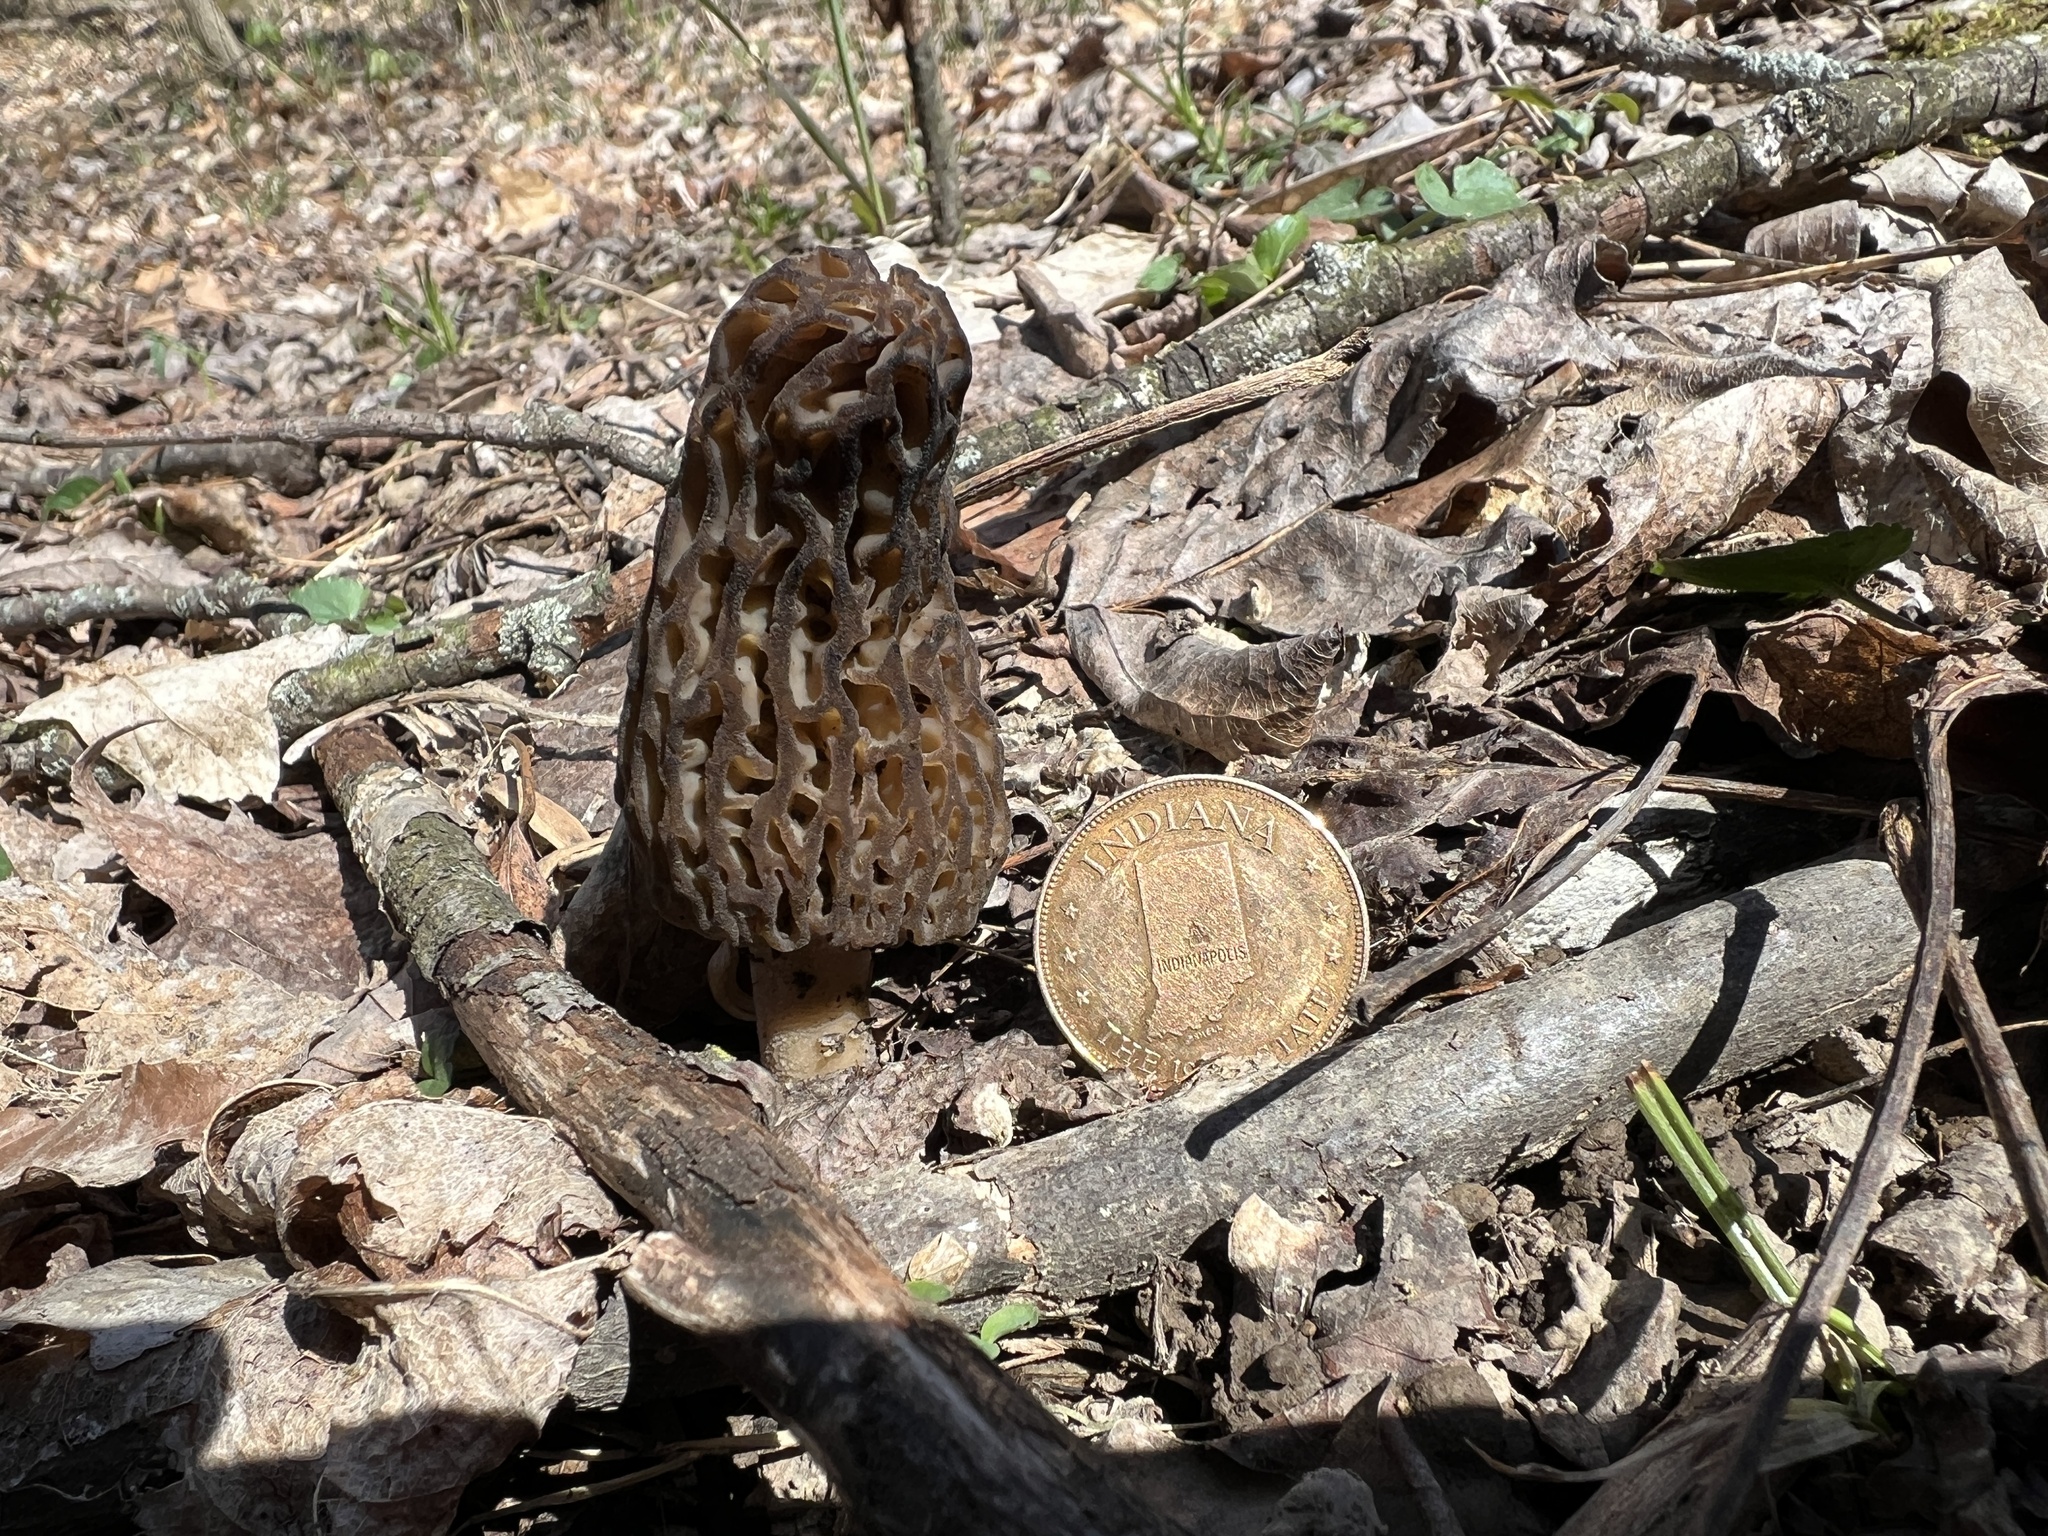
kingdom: Fungi
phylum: Ascomycota
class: Pezizomycetes
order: Pezizales
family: Morchellaceae
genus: Morchella
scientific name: Morchella angusticeps
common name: Black morel
